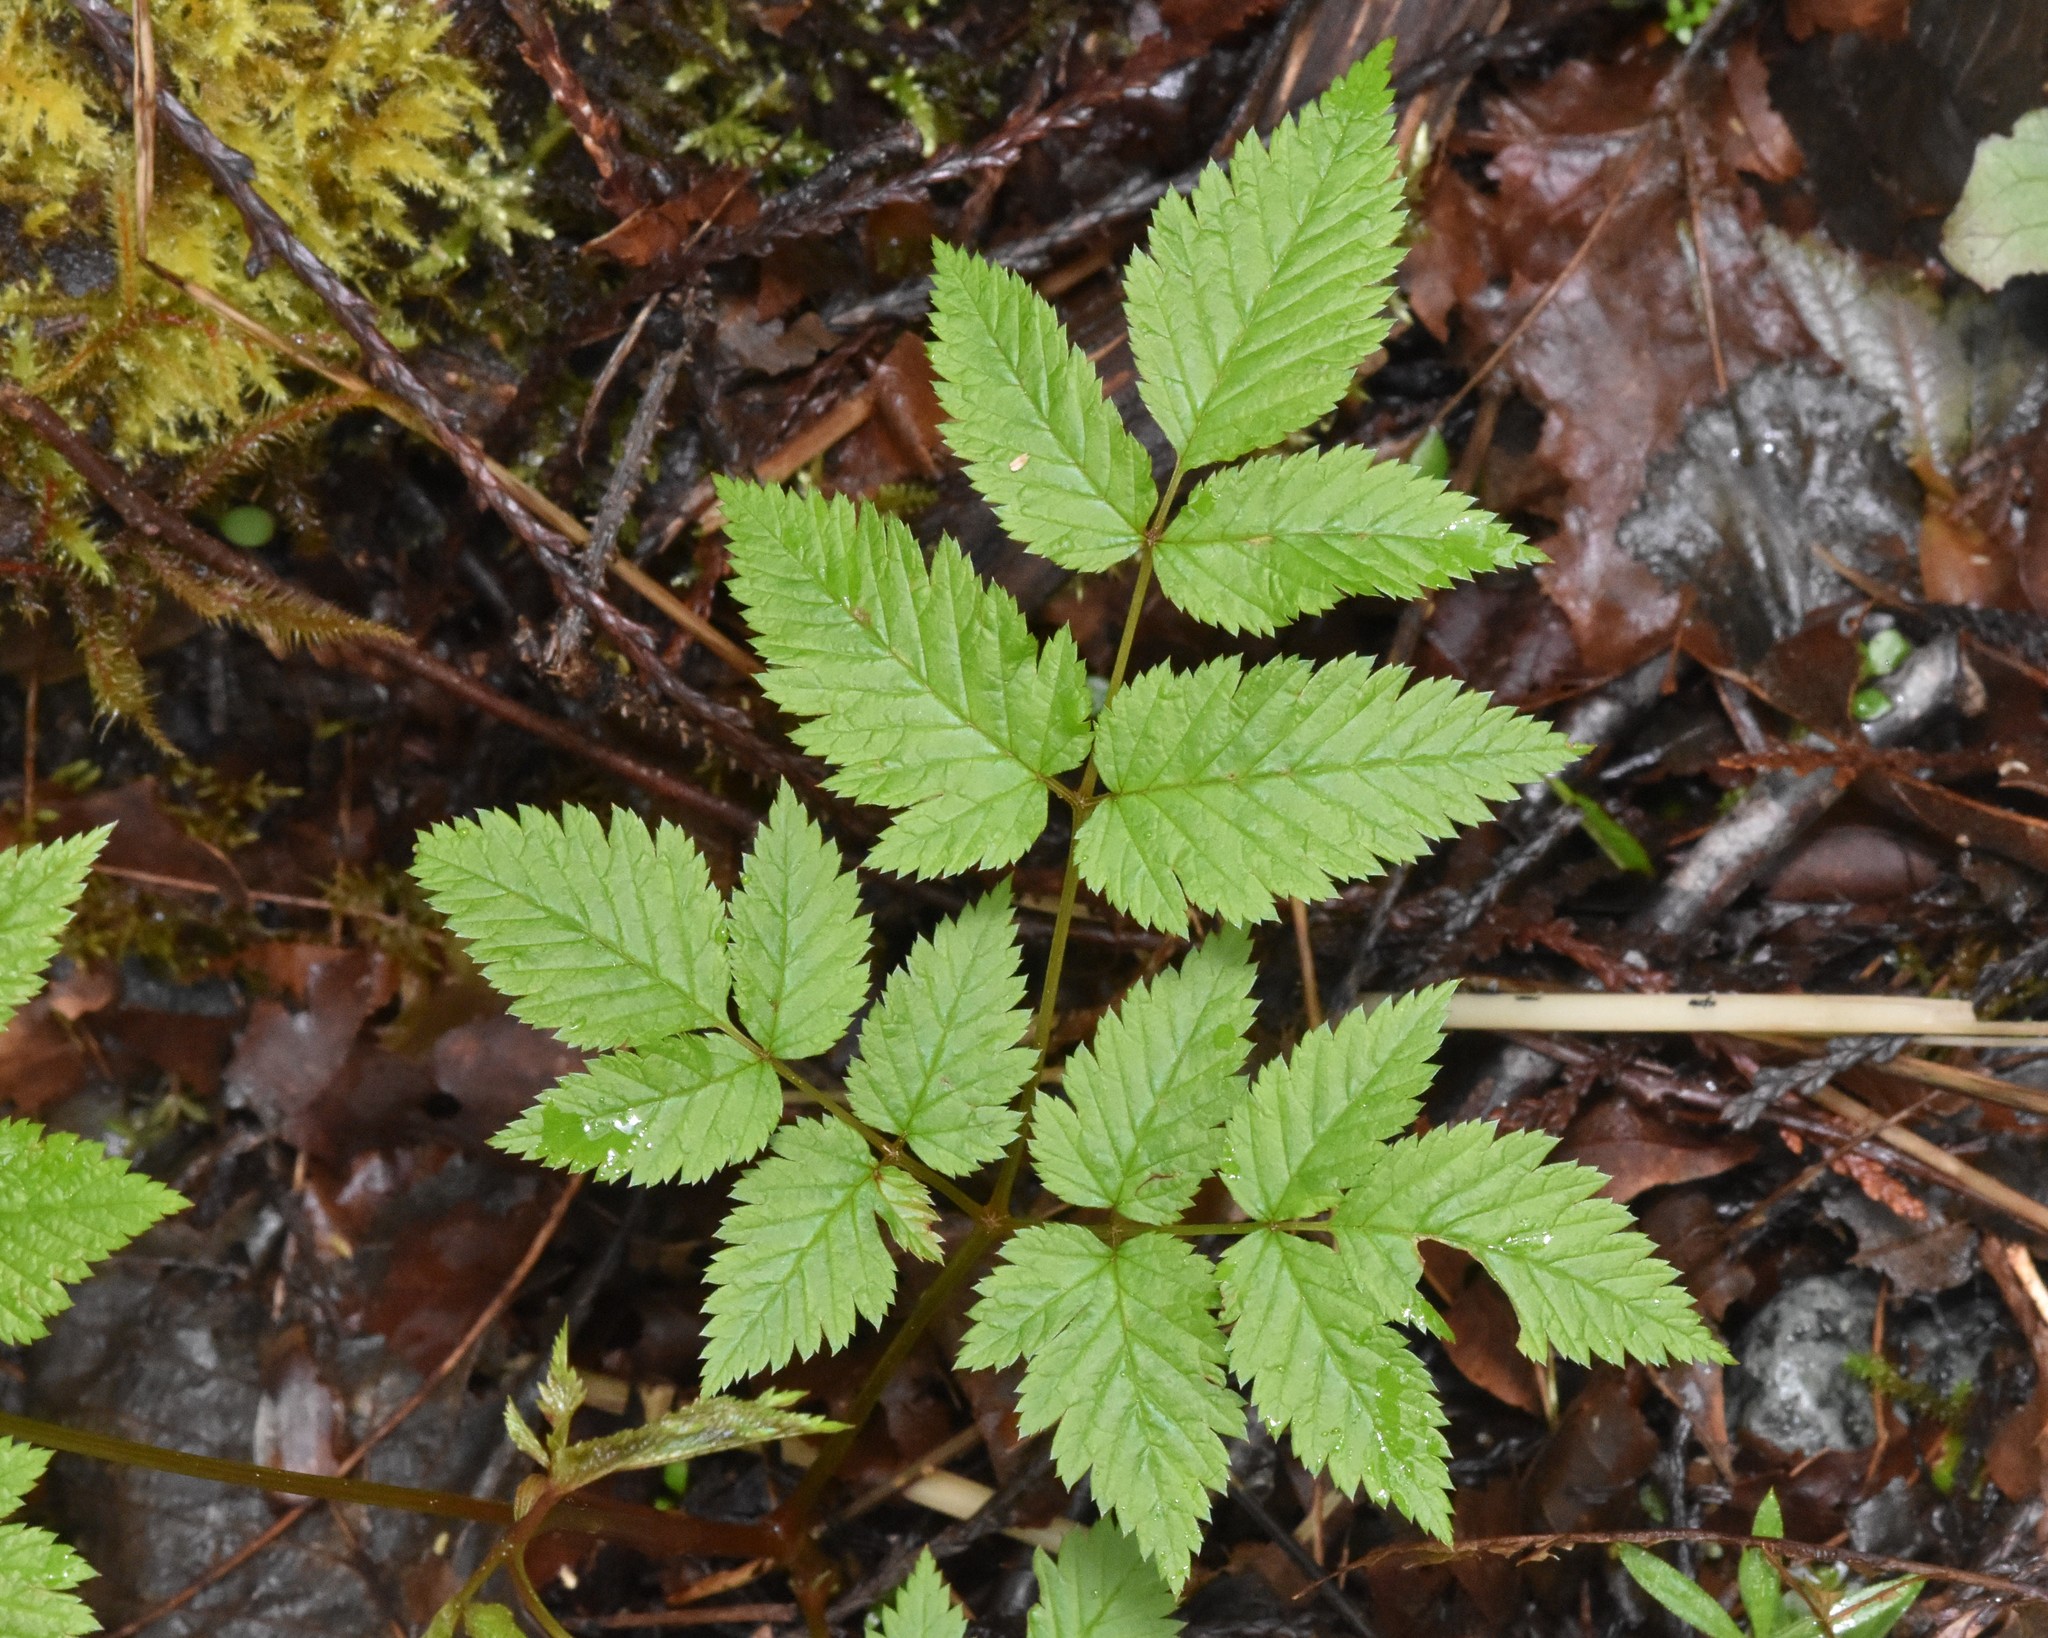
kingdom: Plantae
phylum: Tracheophyta
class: Magnoliopsida
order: Rosales
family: Rosaceae
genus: Aruncus
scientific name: Aruncus dioicus
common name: Buck's-beard
